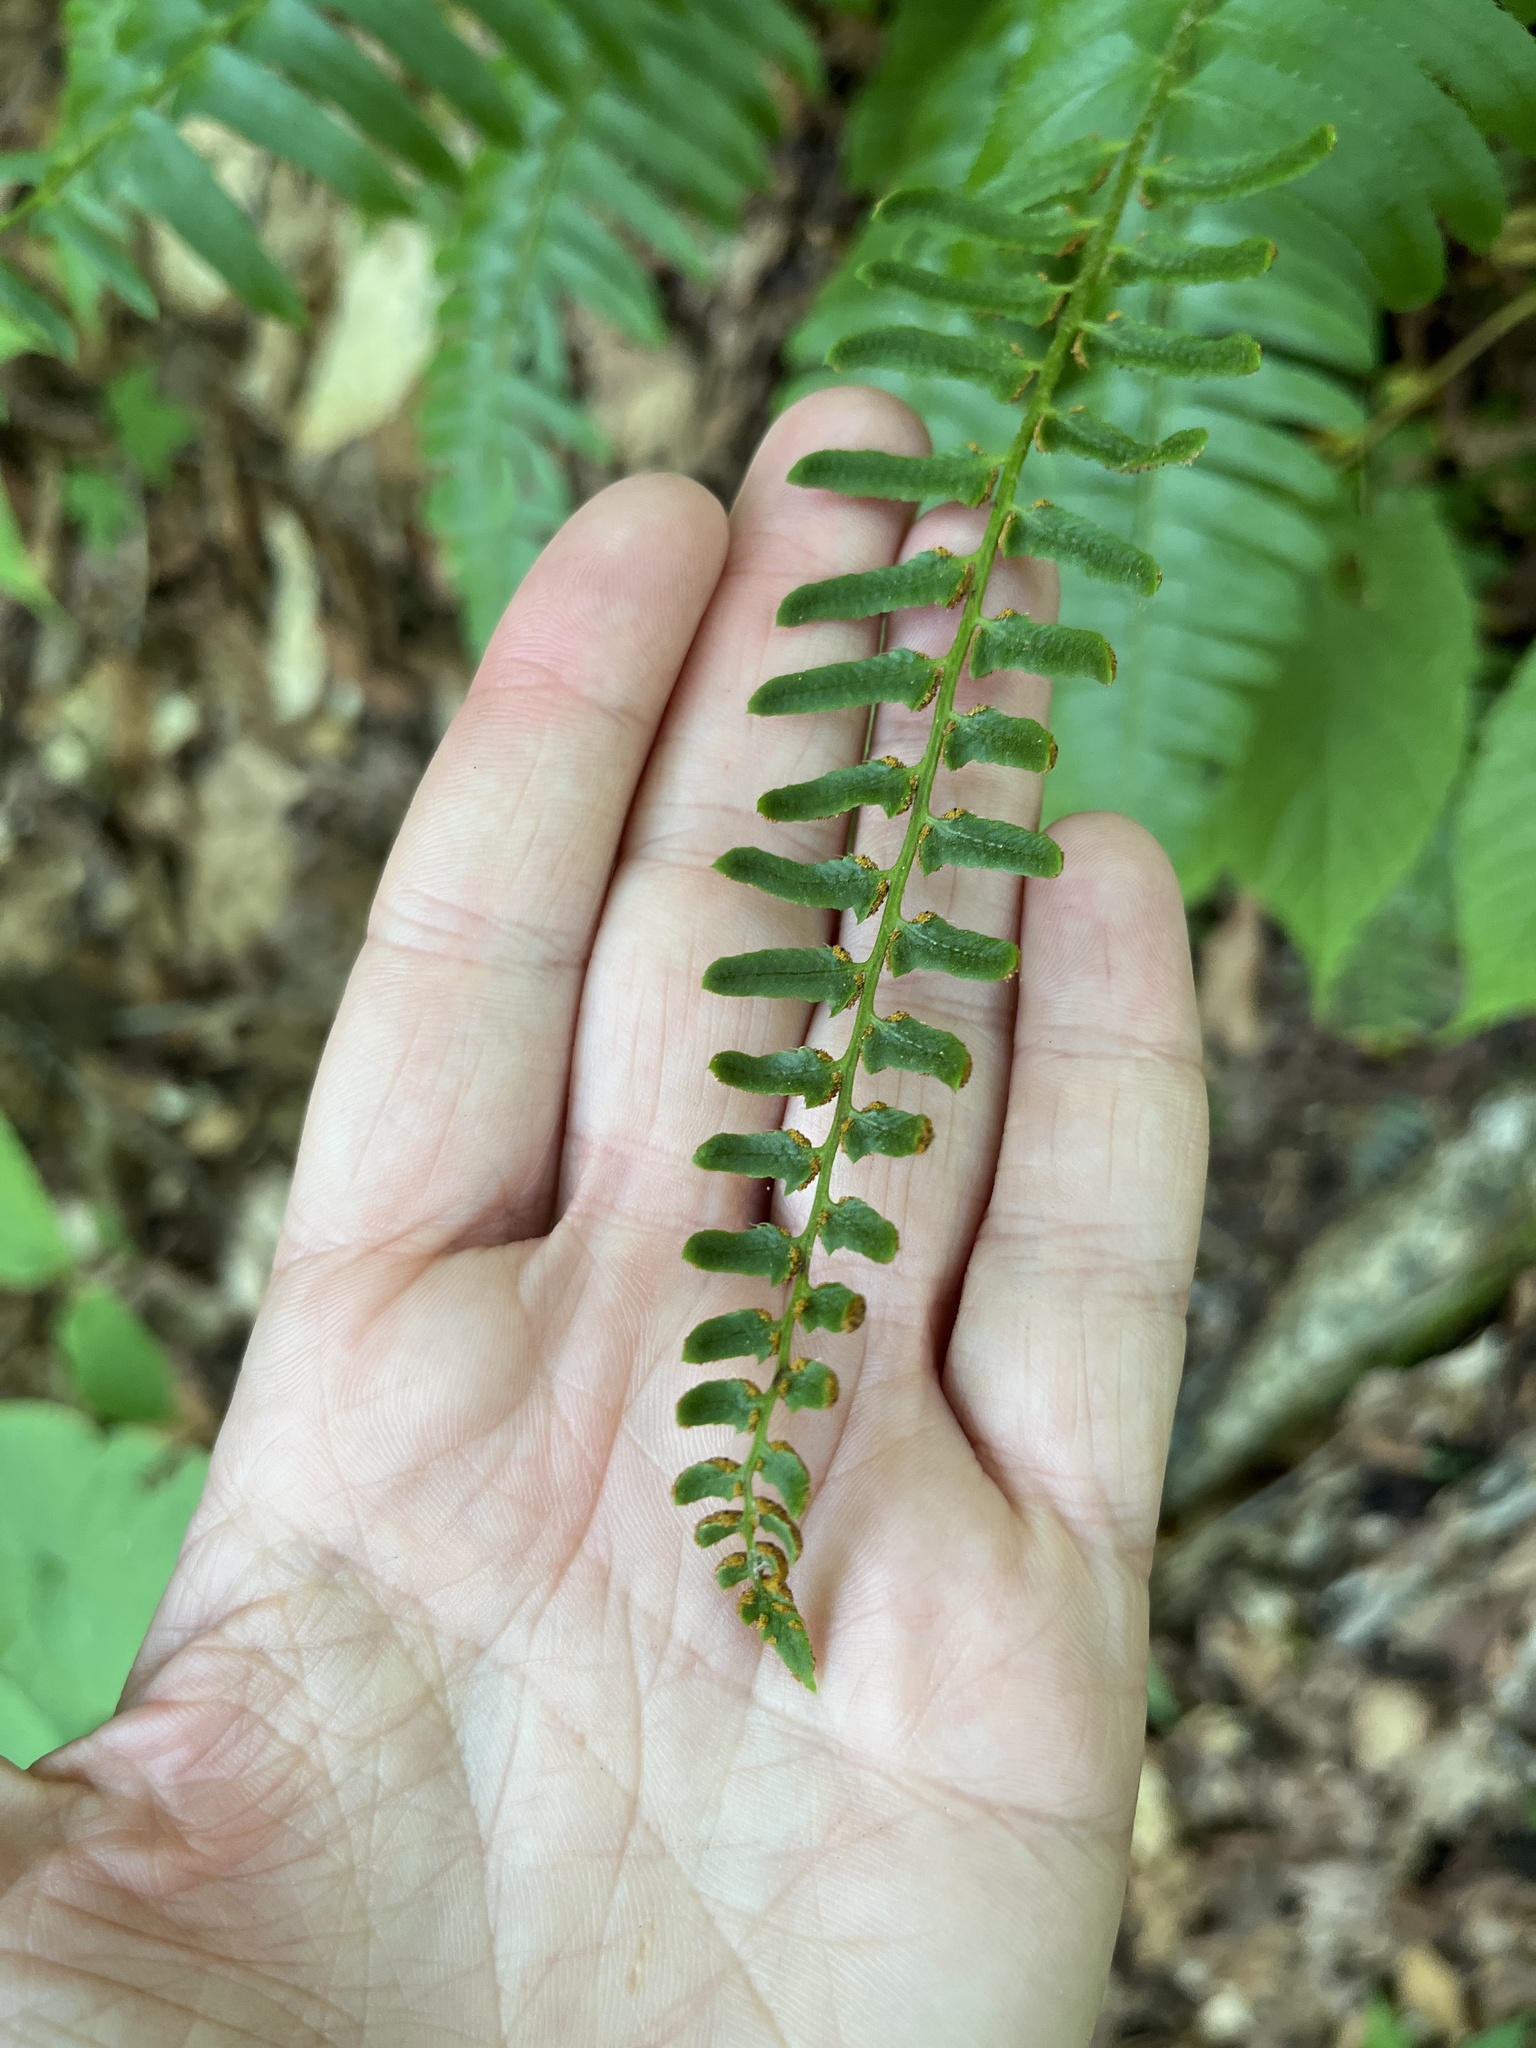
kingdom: Plantae
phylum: Tracheophyta
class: Polypodiopsida
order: Polypodiales
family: Dryopteridaceae
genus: Polystichum
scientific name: Polystichum acrostichoides
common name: Christmas fern
